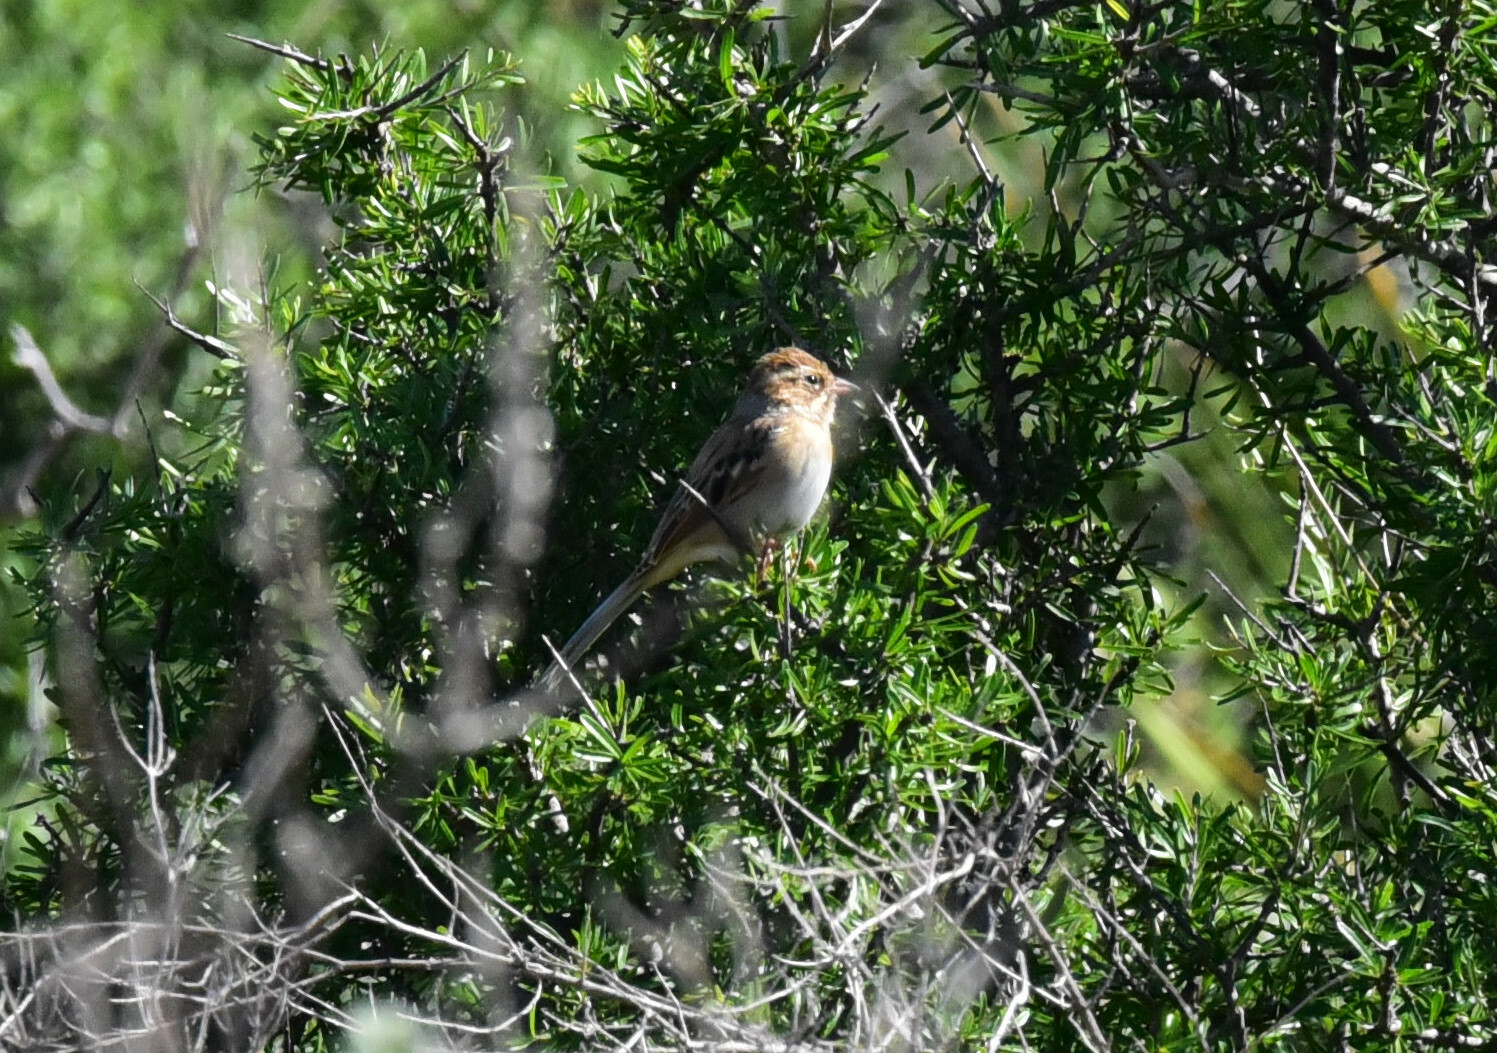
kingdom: Animalia
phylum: Chordata
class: Aves
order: Passeriformes
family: Passerellidae
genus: Spizella
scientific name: Spizella breweri
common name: Brewer's sparrow
